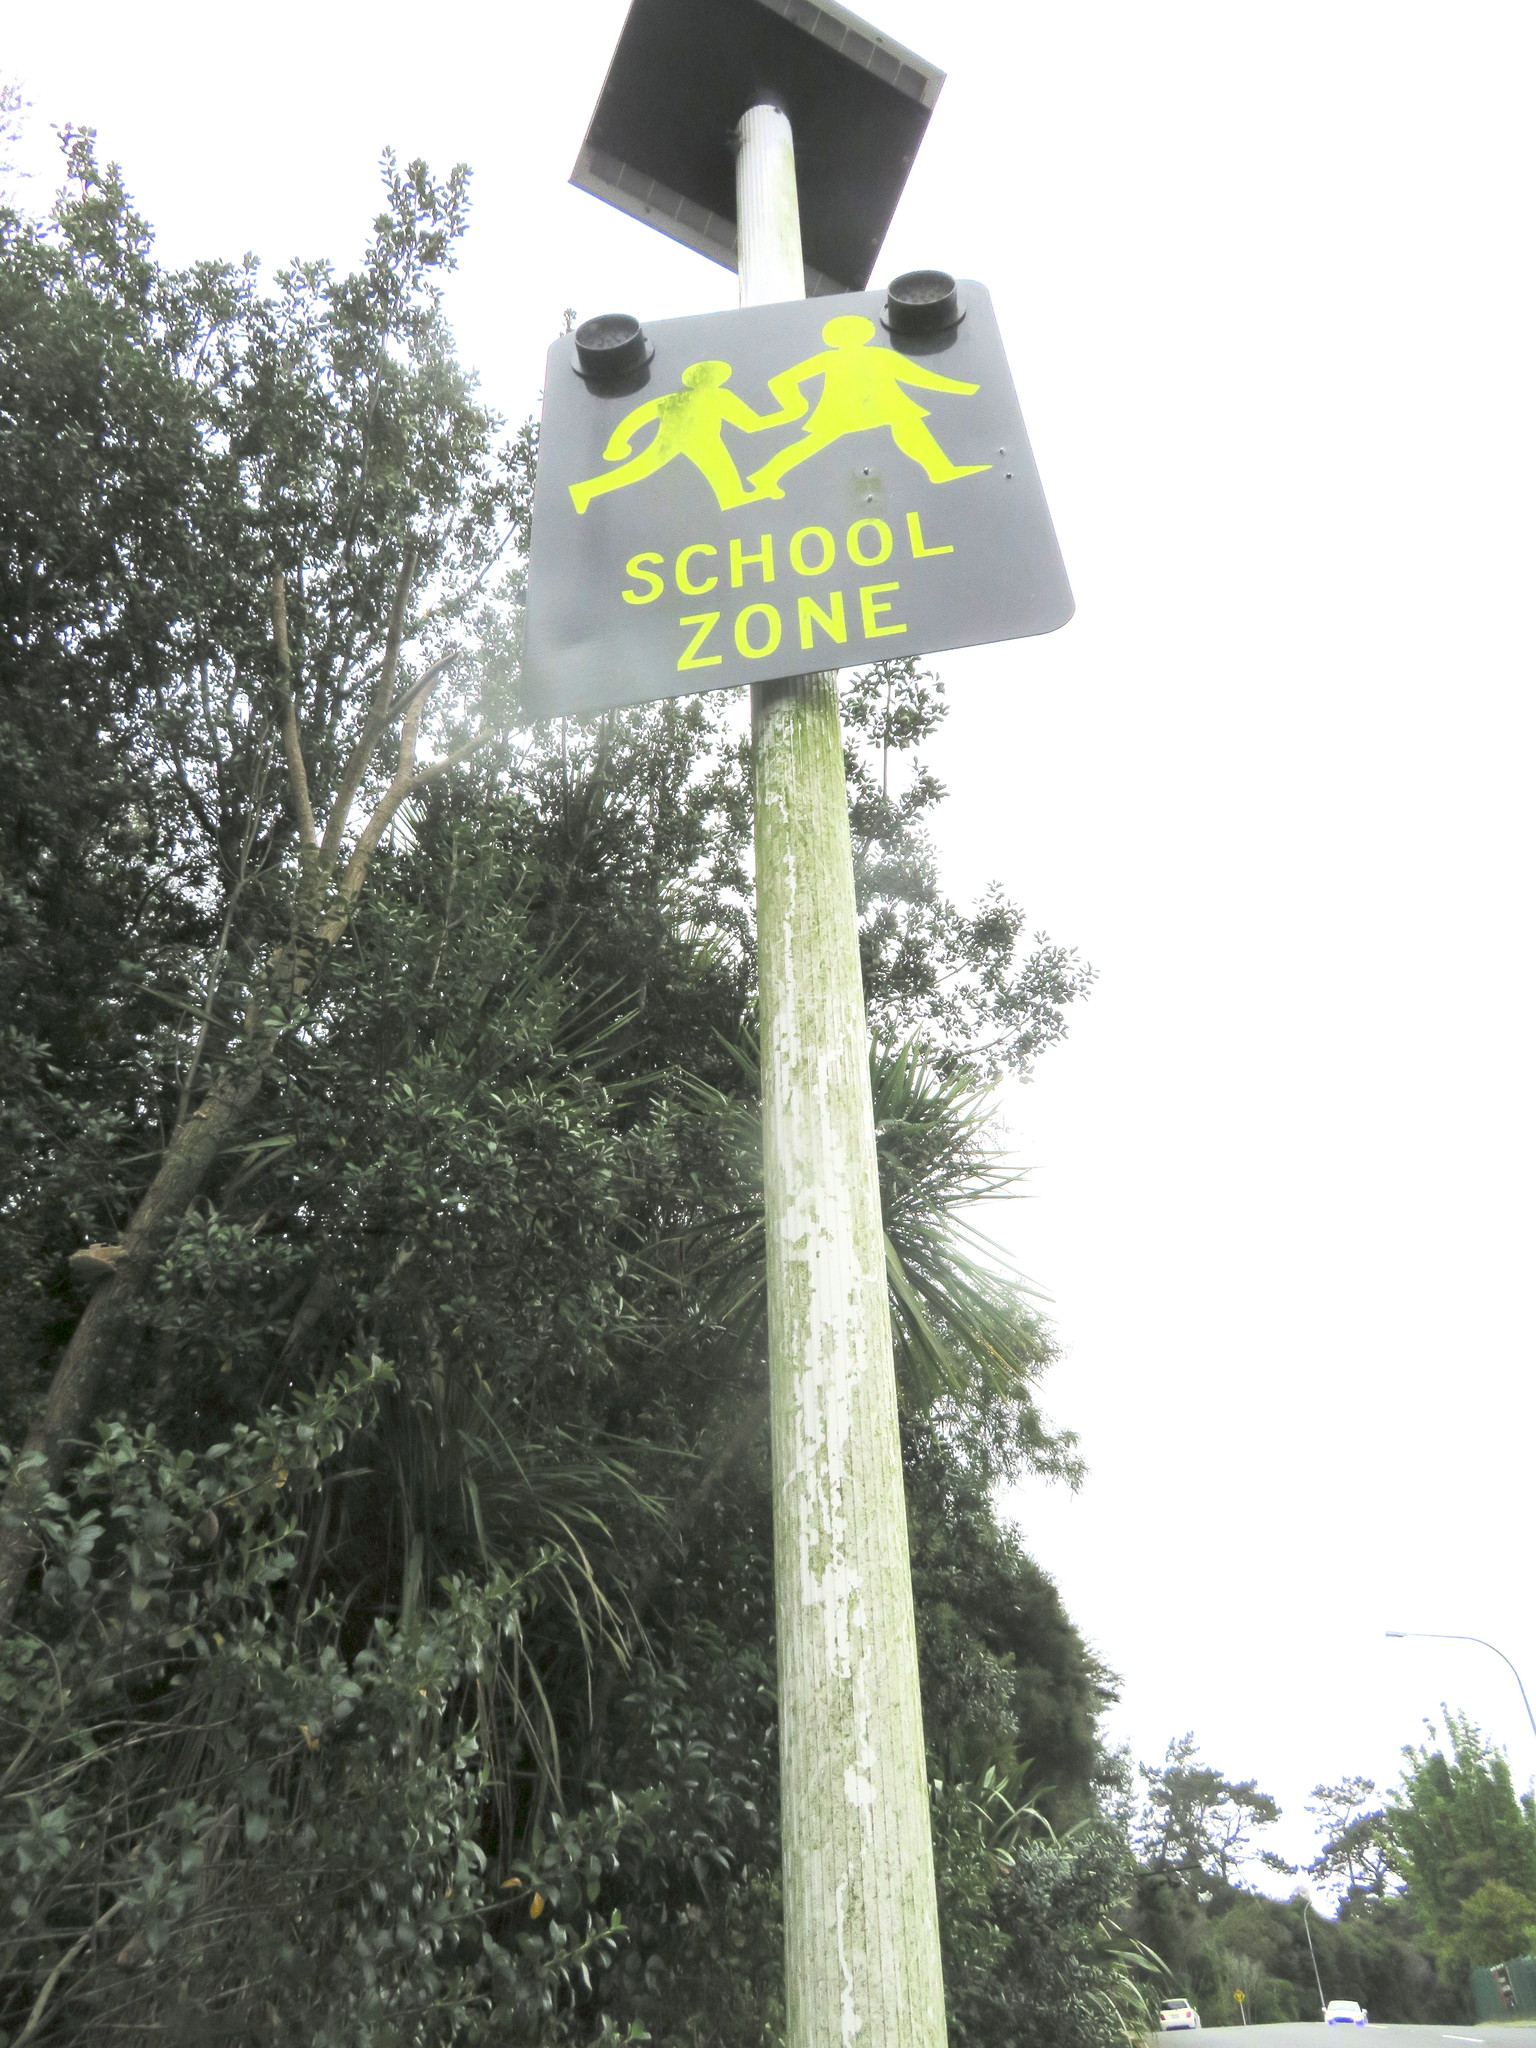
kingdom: Plantae
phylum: Tracheophyta
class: Liliopsida
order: Asparagales
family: Asparagaceae
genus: Cordyline
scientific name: Cordyline australis
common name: Cabbage-palm
